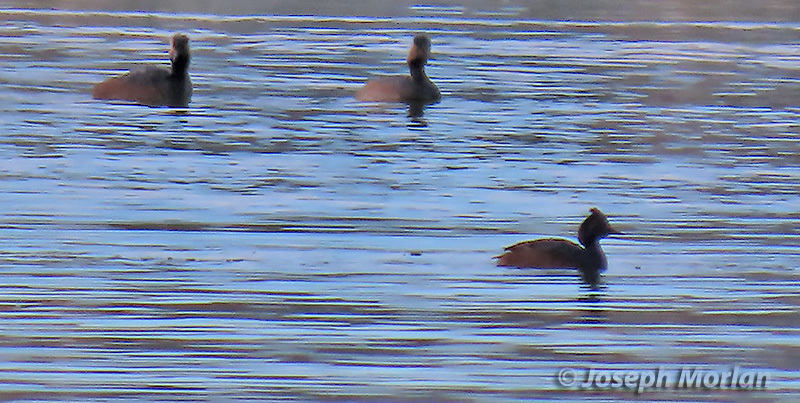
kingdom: Animalia
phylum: Chordata
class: Aves
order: Podicipediformes
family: Podicipedidae
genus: Podiceps
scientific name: Podiceps nigricollis
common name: Black-necked grebe
